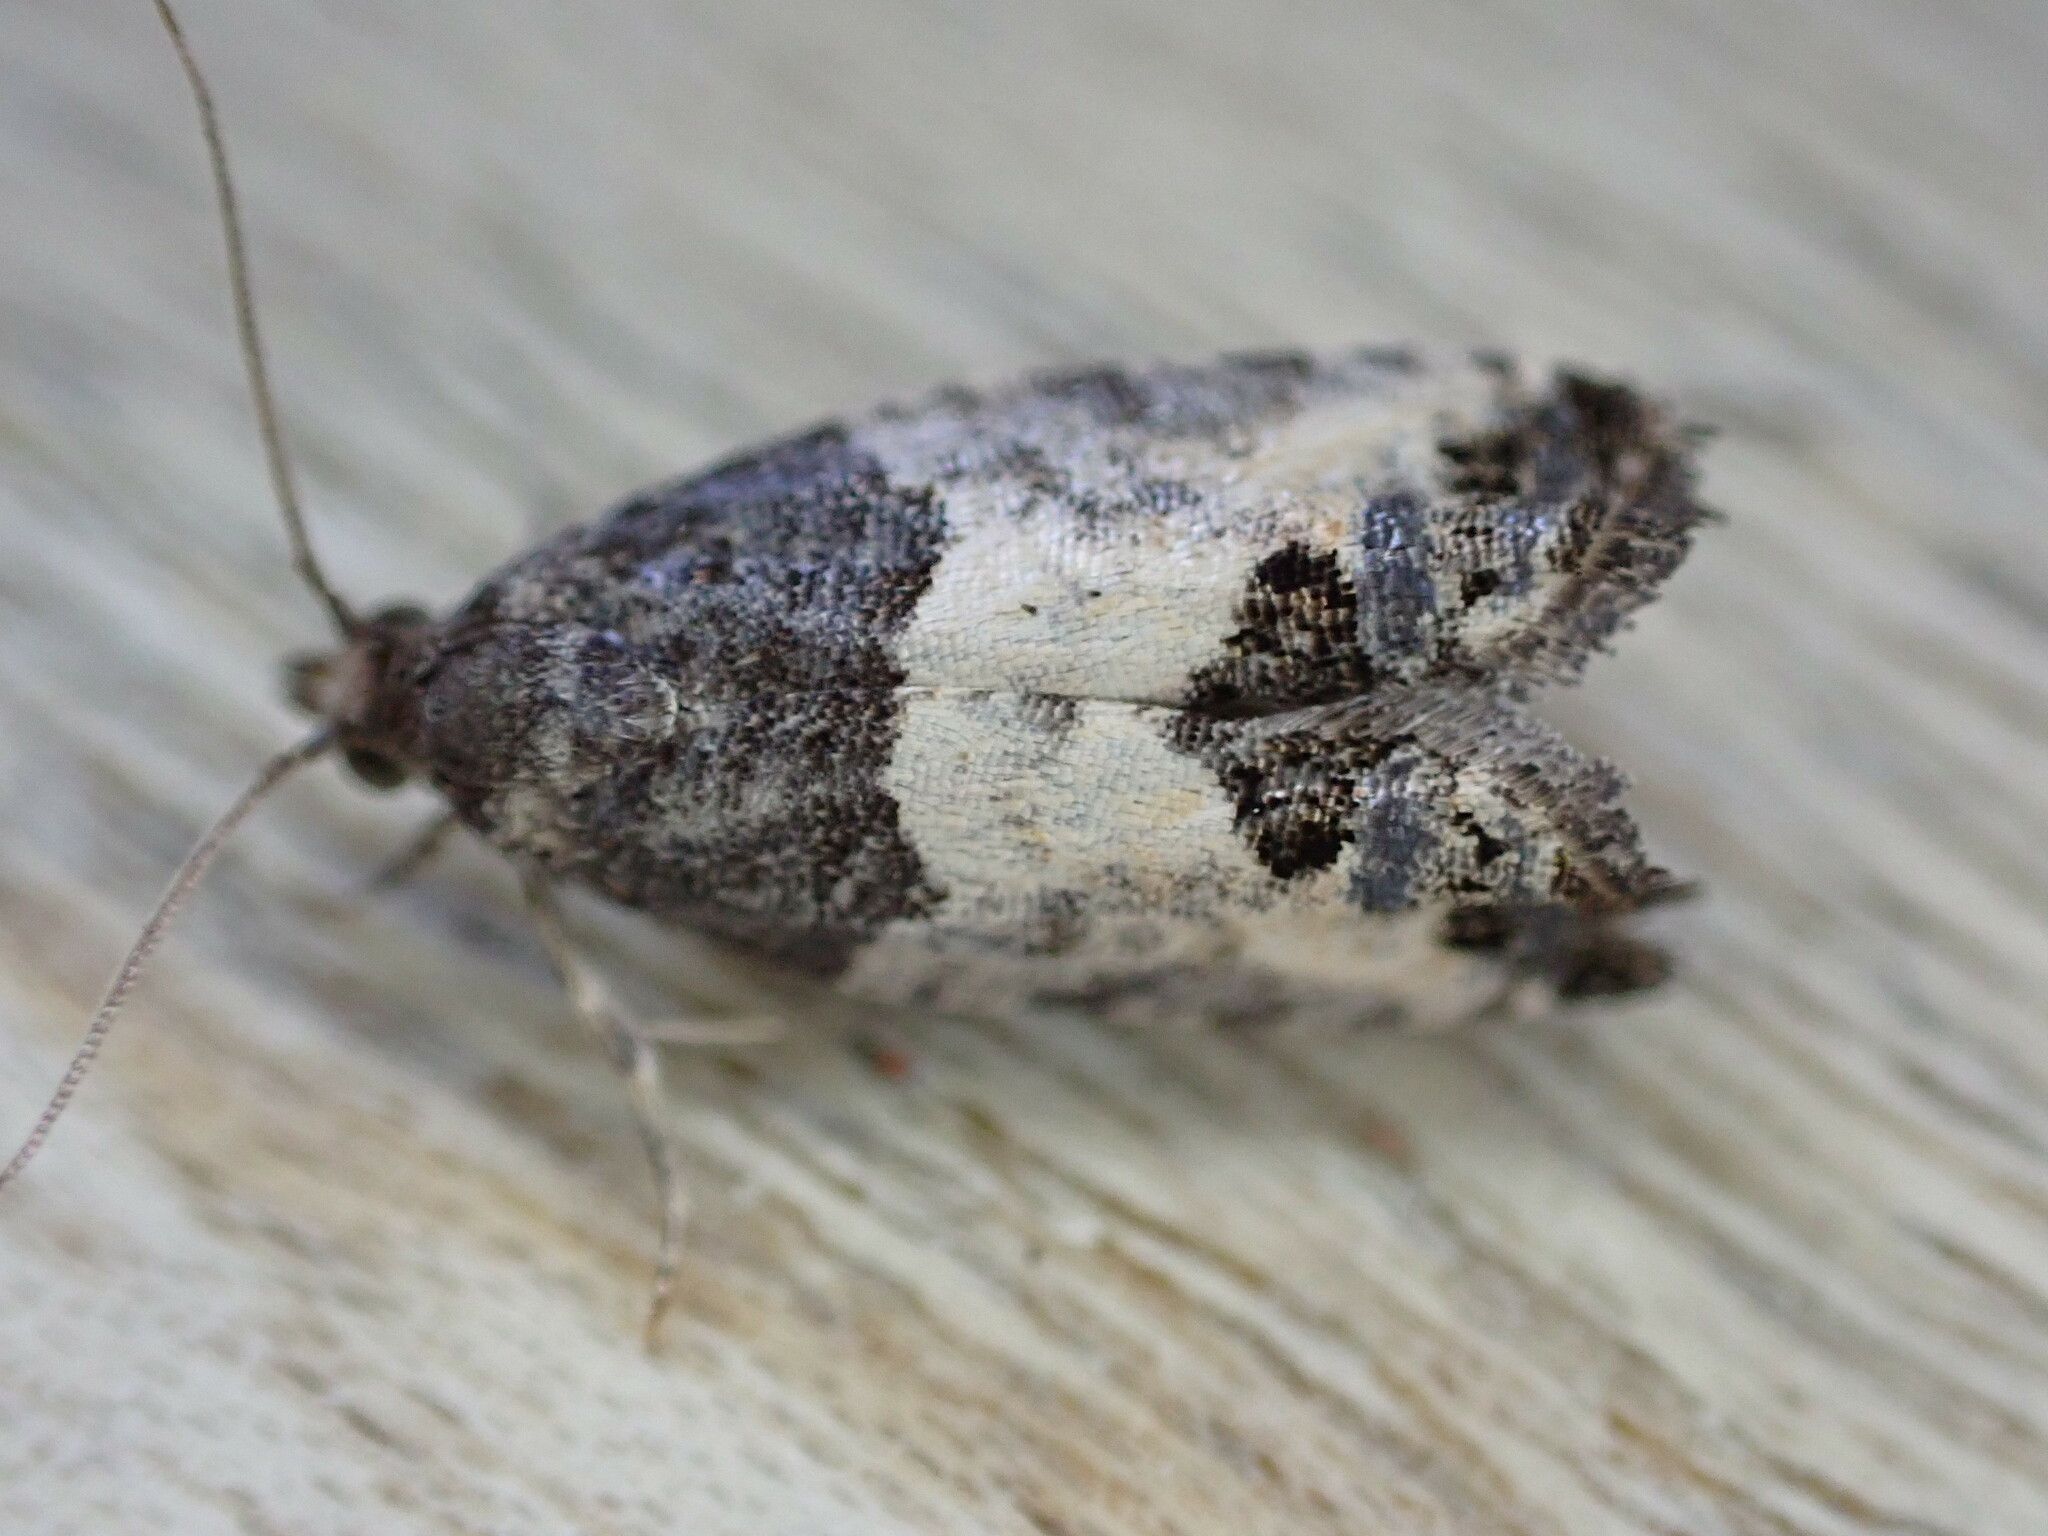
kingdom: Animalia
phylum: Arthropoda
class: Insecta
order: Lepidoptera
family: Tortricidae
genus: Spilonota
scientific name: Spilonota ocellana
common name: Bud moth
